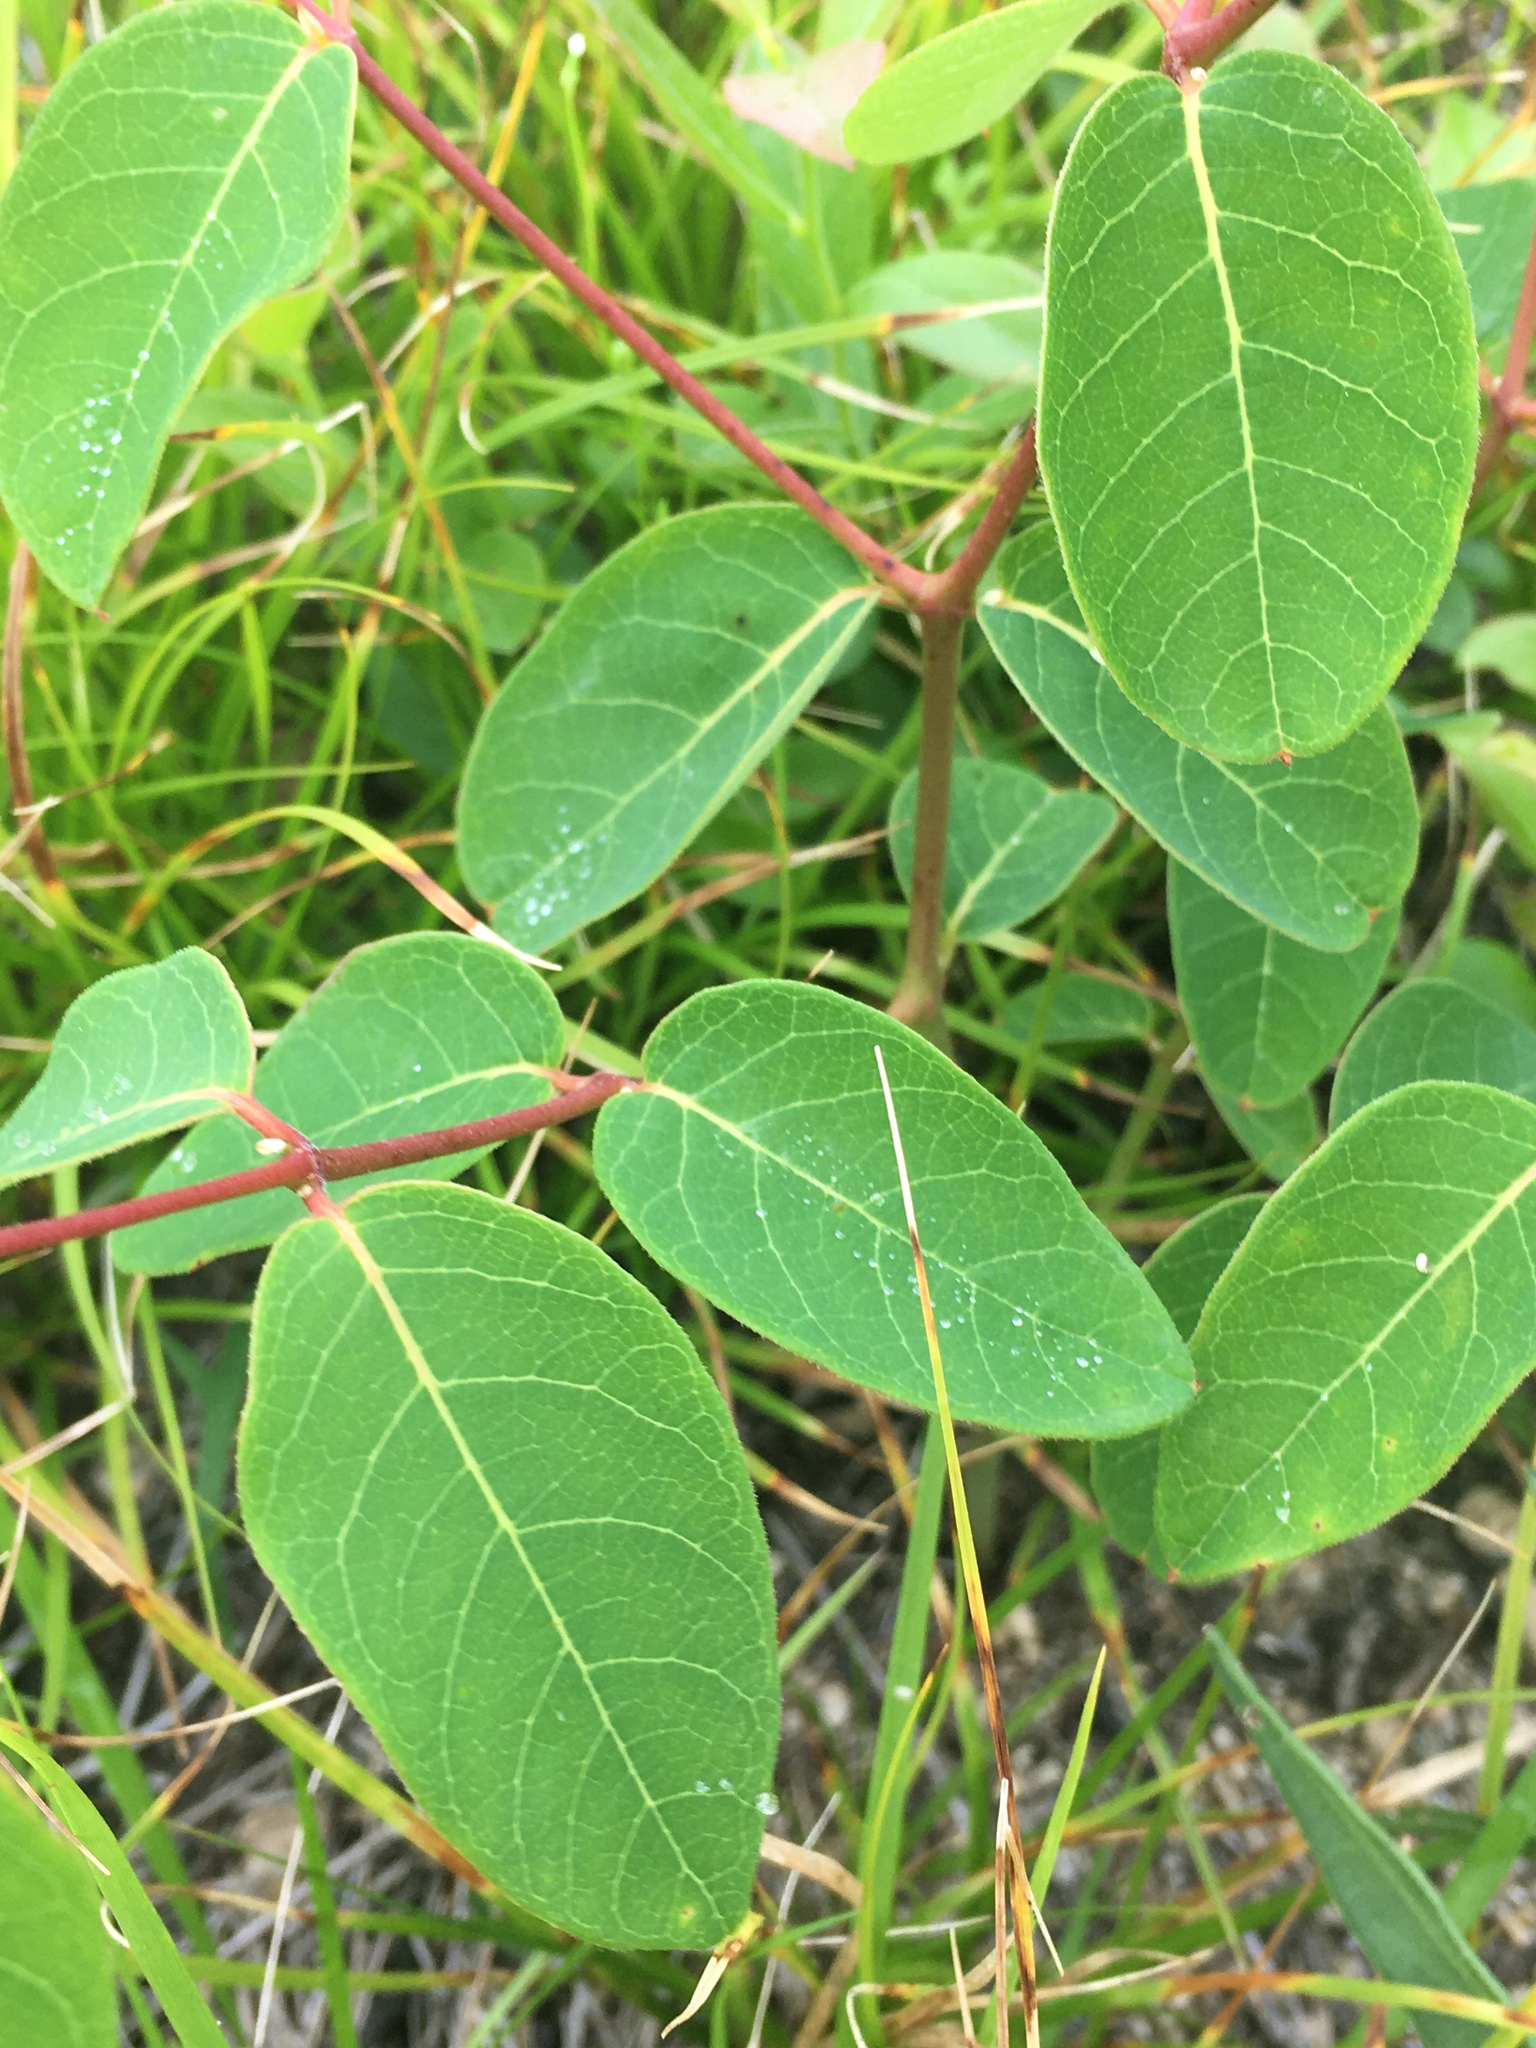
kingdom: Plantae
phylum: Tracheophyta
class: Magnoliopsida
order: Gentianales
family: Apocynaceae
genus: Apocynum
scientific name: Apocynum androsaemifolium
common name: Spreading dogbane
